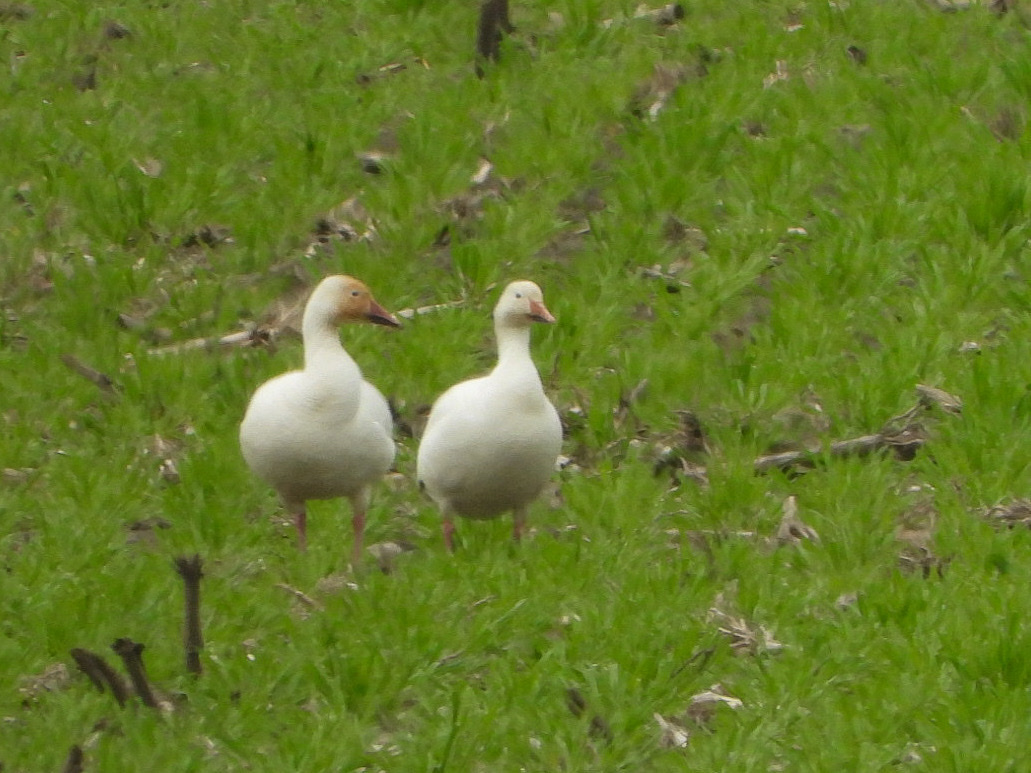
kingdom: Animalia
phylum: Chordata
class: Aves
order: Anseriformes
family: Anatidae
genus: Anser
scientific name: Anser caerulescens
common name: Snow goose
